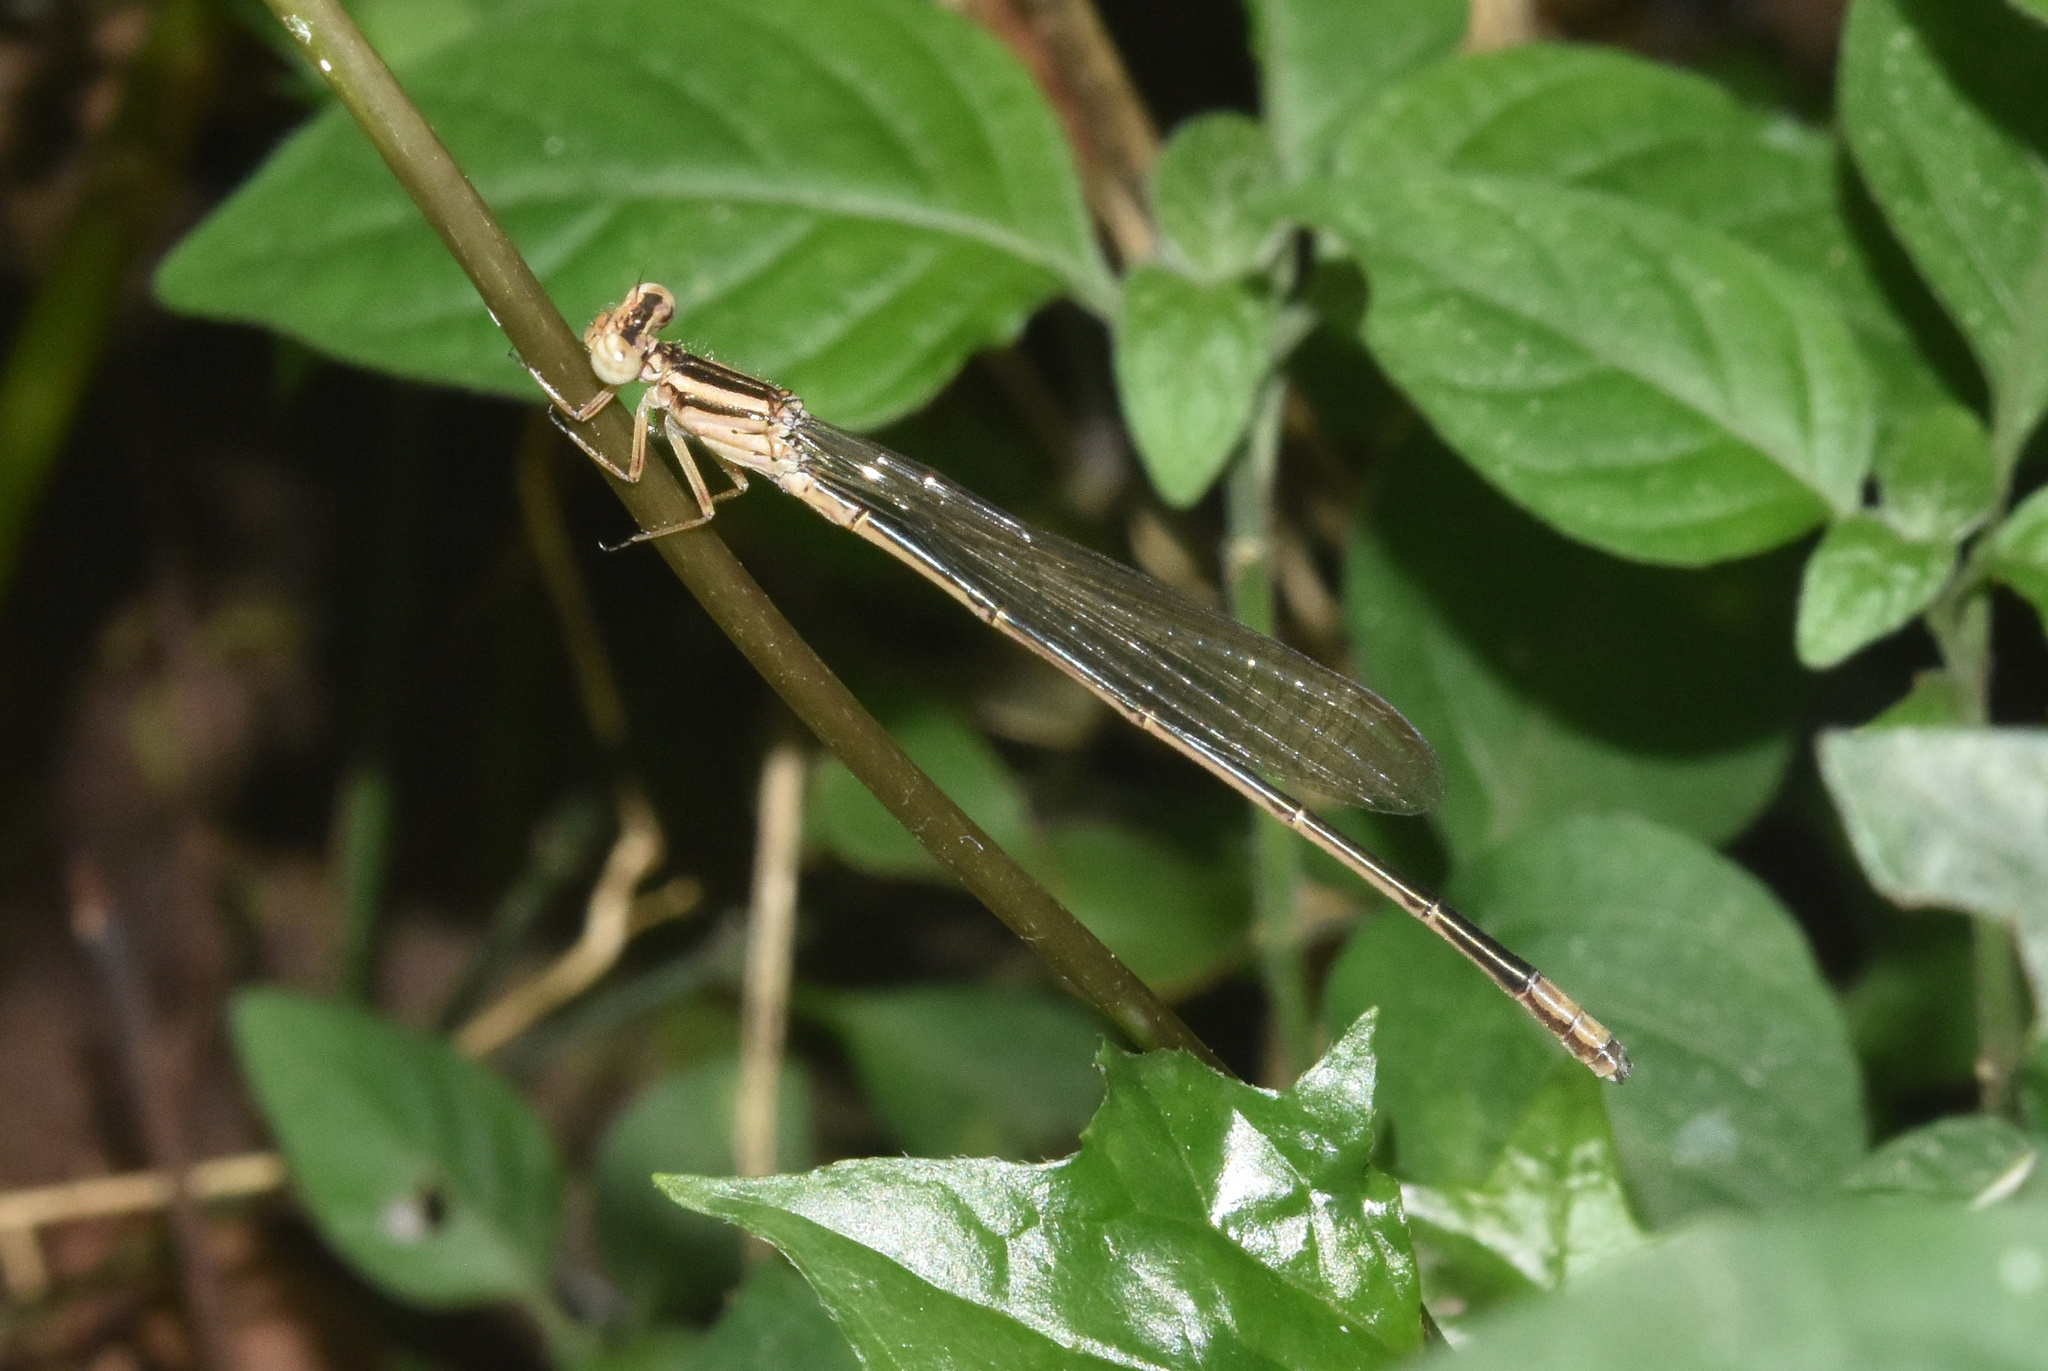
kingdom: Animalia
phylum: Arthropoda
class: Insecta
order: Odonata
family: Coenagrionidae
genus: Pseudagrion
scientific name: Pseudagrion kersteni
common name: Powder-faced sprite
